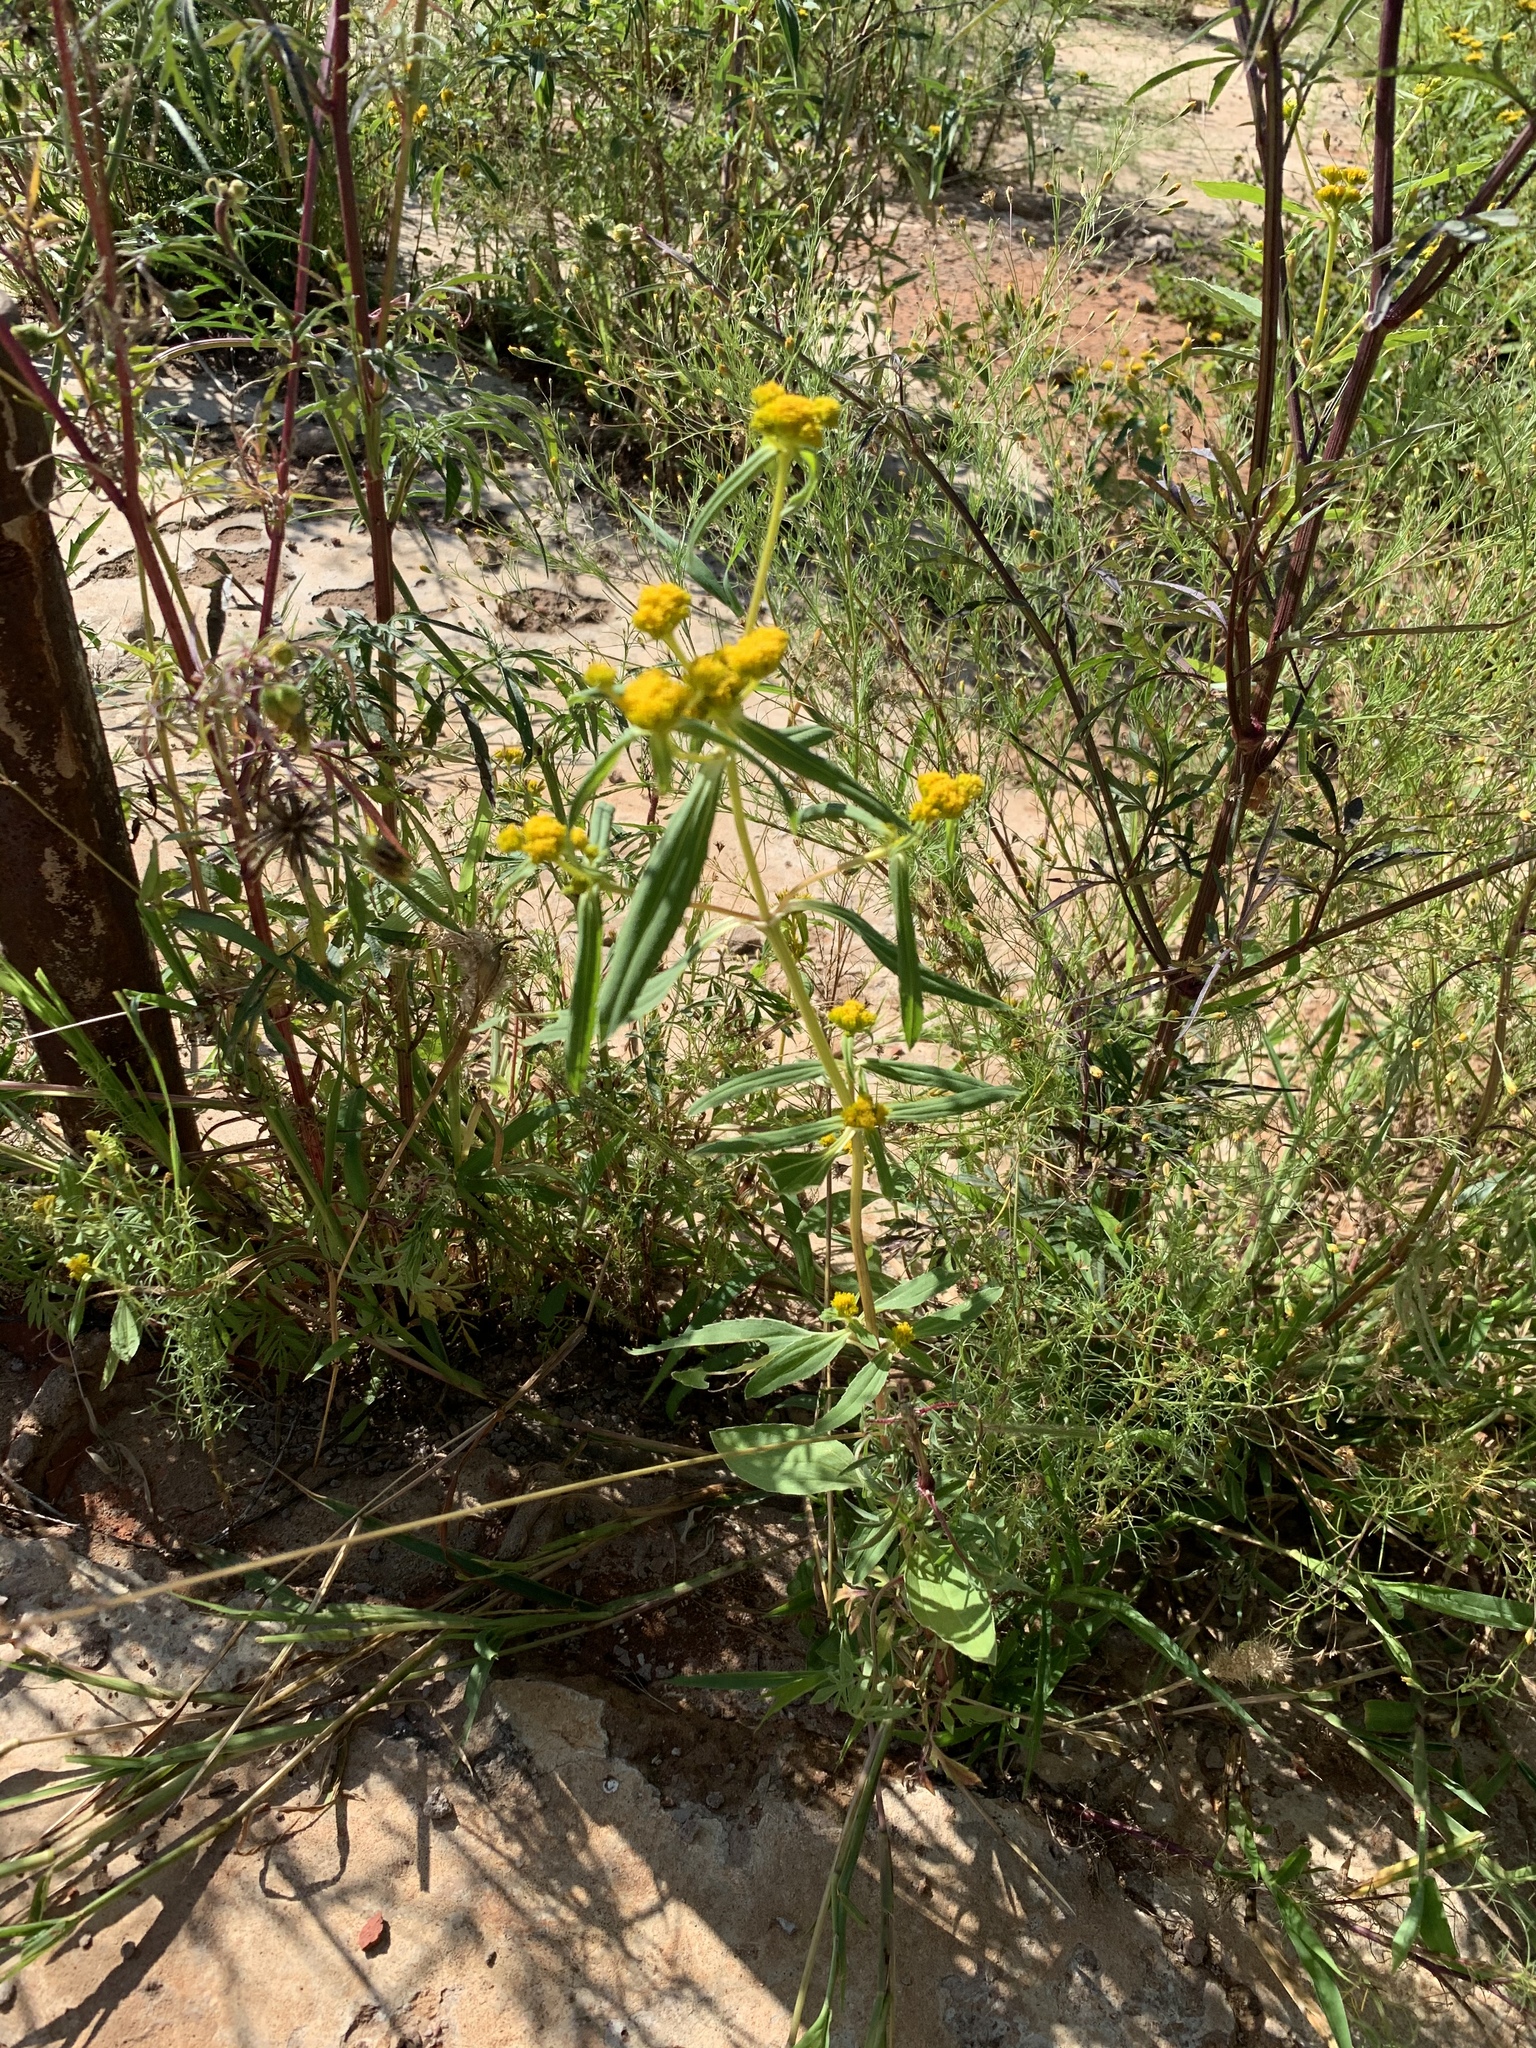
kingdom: Plantae
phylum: Tracheophyta
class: Magnoliopsida
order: Asterales
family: Asteraceae
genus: Flaveria
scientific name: Flaveria bidentis
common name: Coastal plain yellowtops
